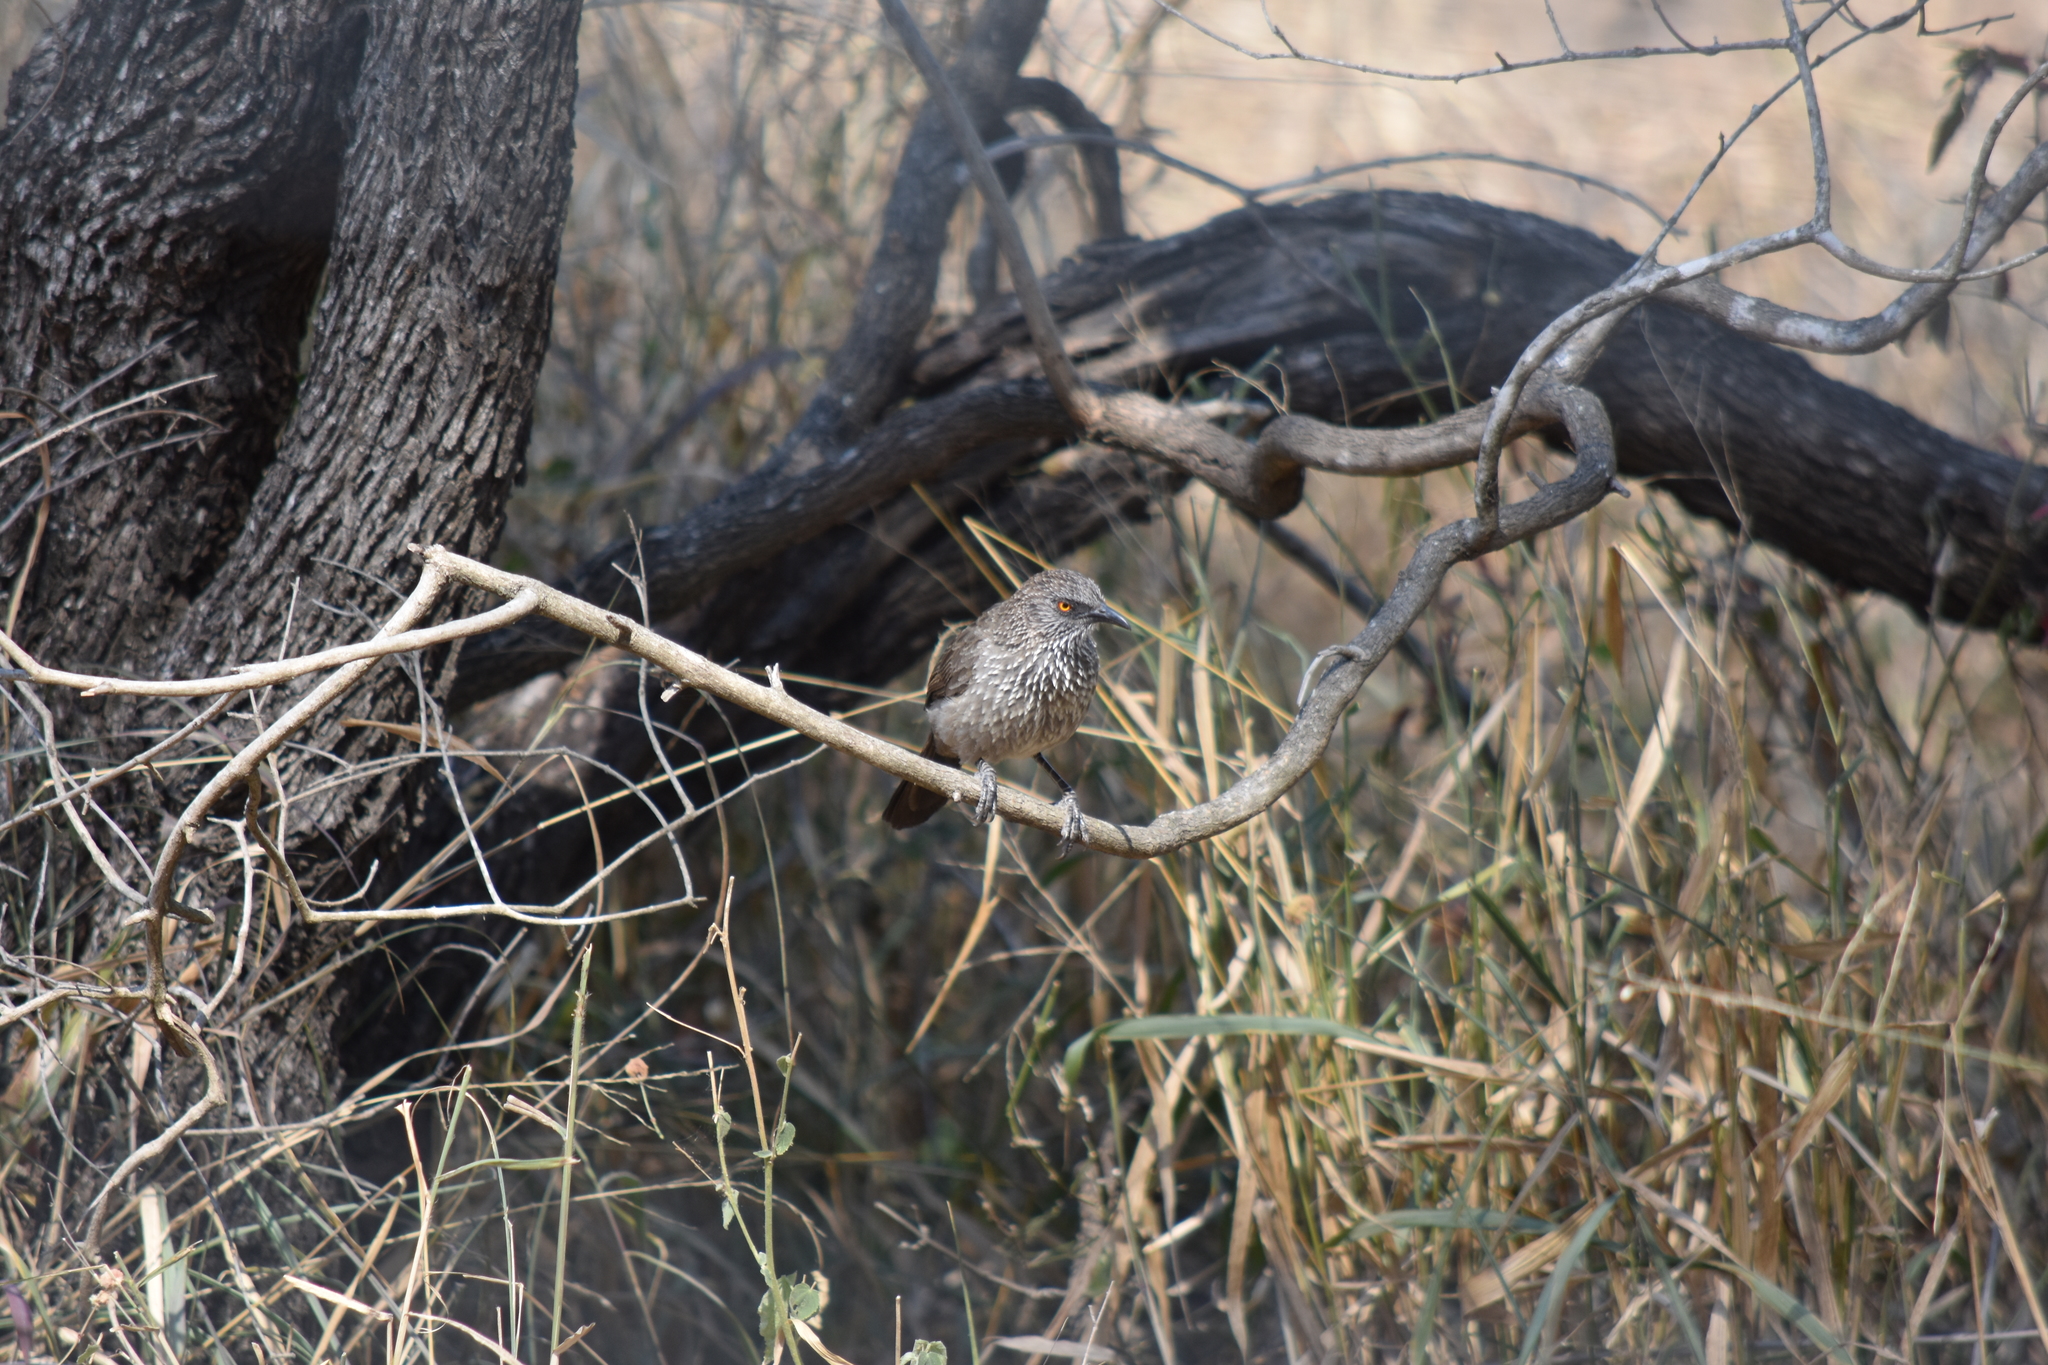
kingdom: Animalia
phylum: Chordata
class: Aves
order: Passeriformes
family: Leiothrichidae
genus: Turdoides
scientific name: Turdoides jardineii
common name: Arrow-marked babbler
